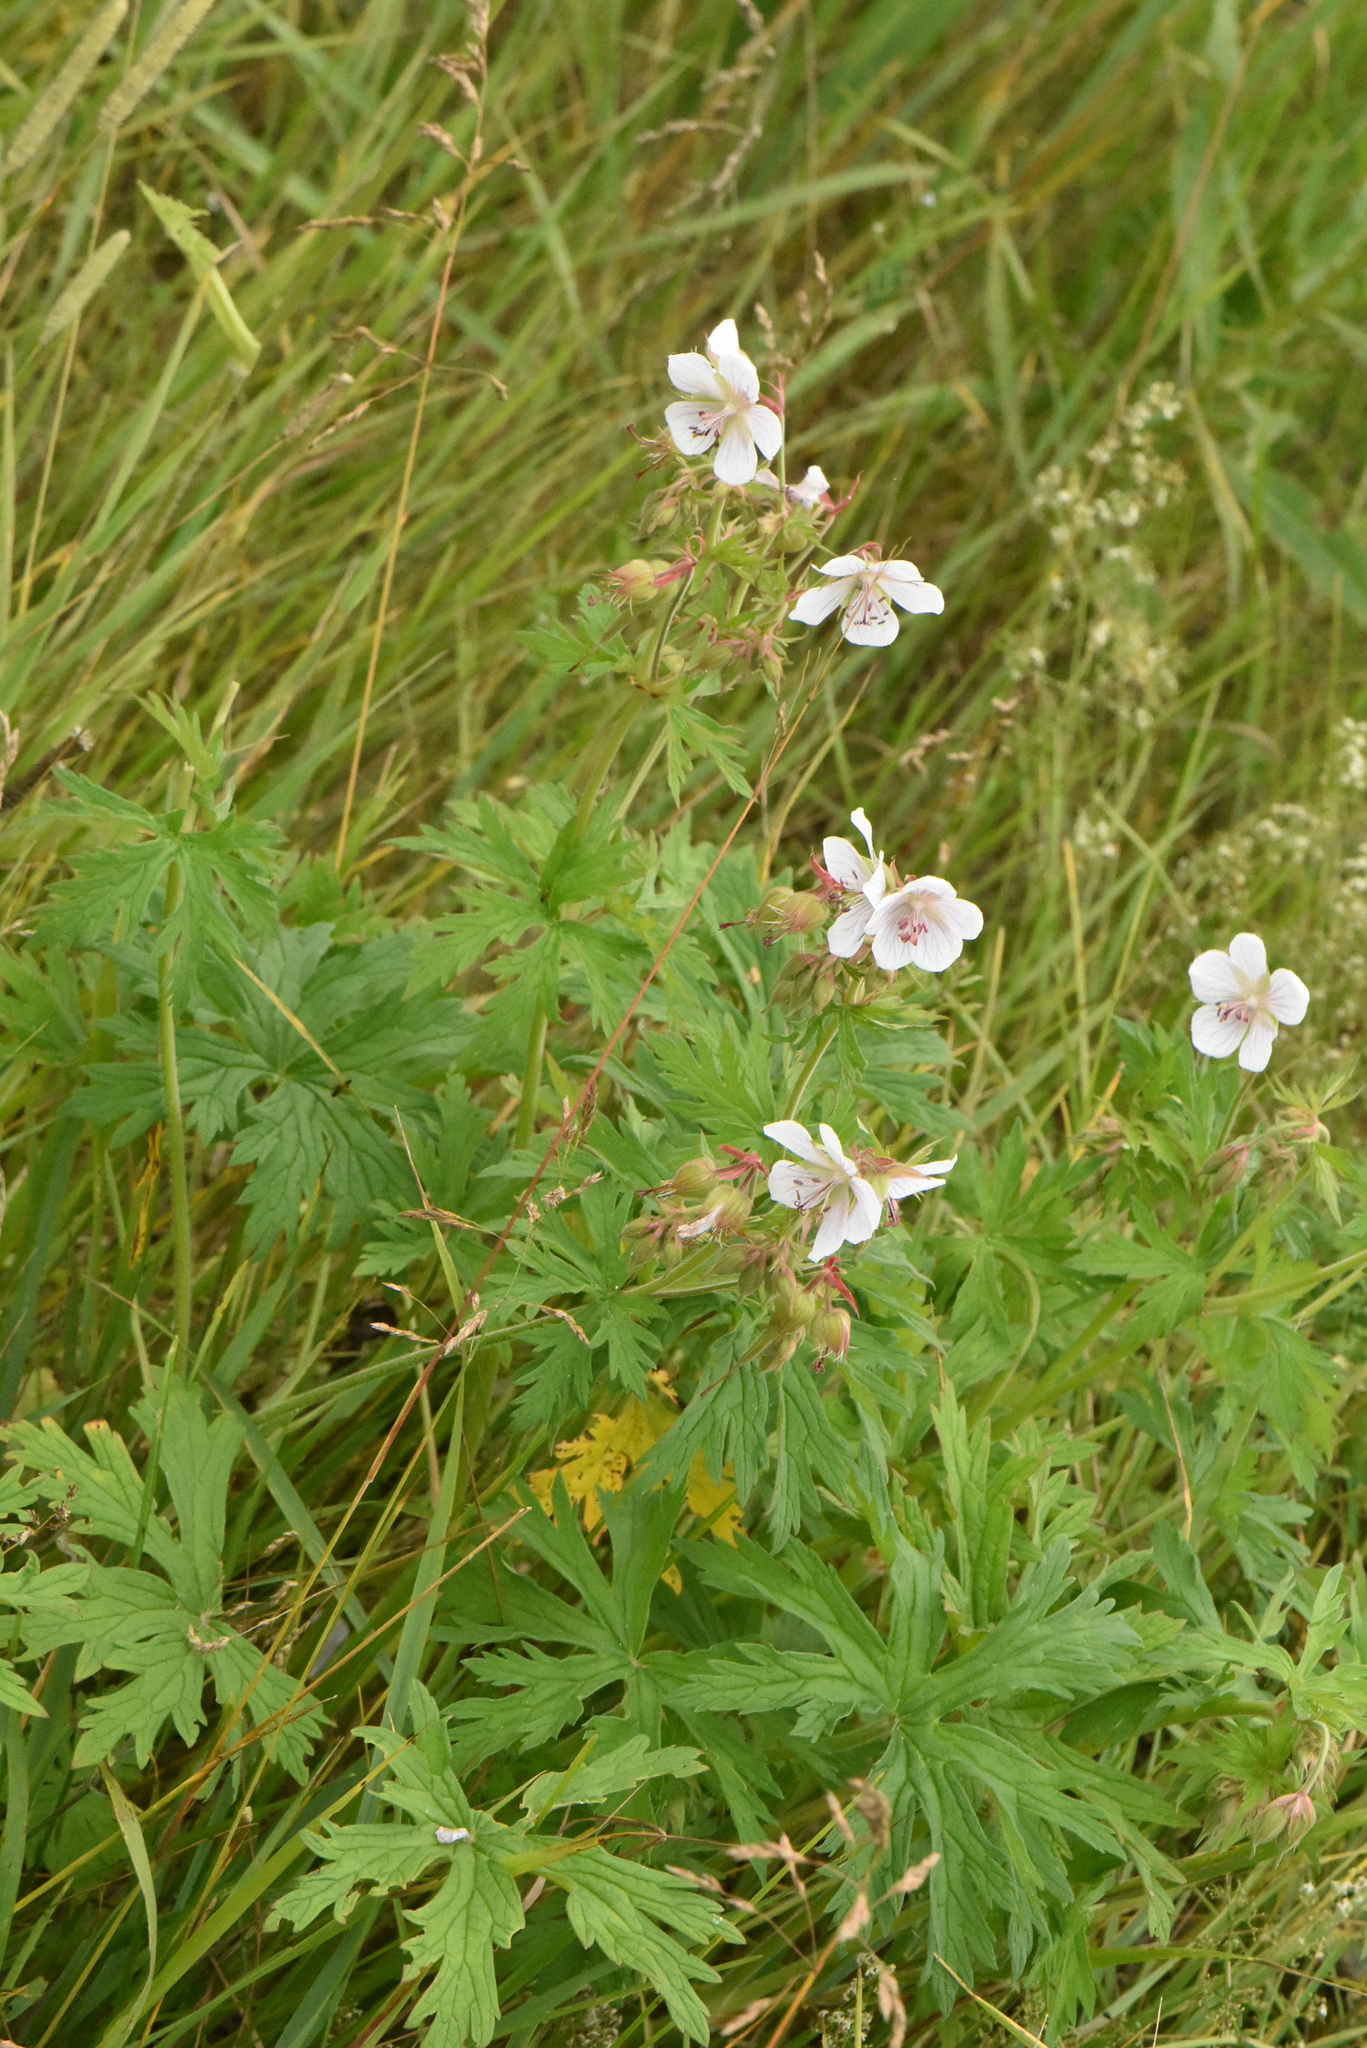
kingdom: Plantae
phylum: Tracheophyta
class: Magnoliopsida
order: Geraniales
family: Geraniaceae
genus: Geranium
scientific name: Geranium pratense
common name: Meadow crane's-bill
